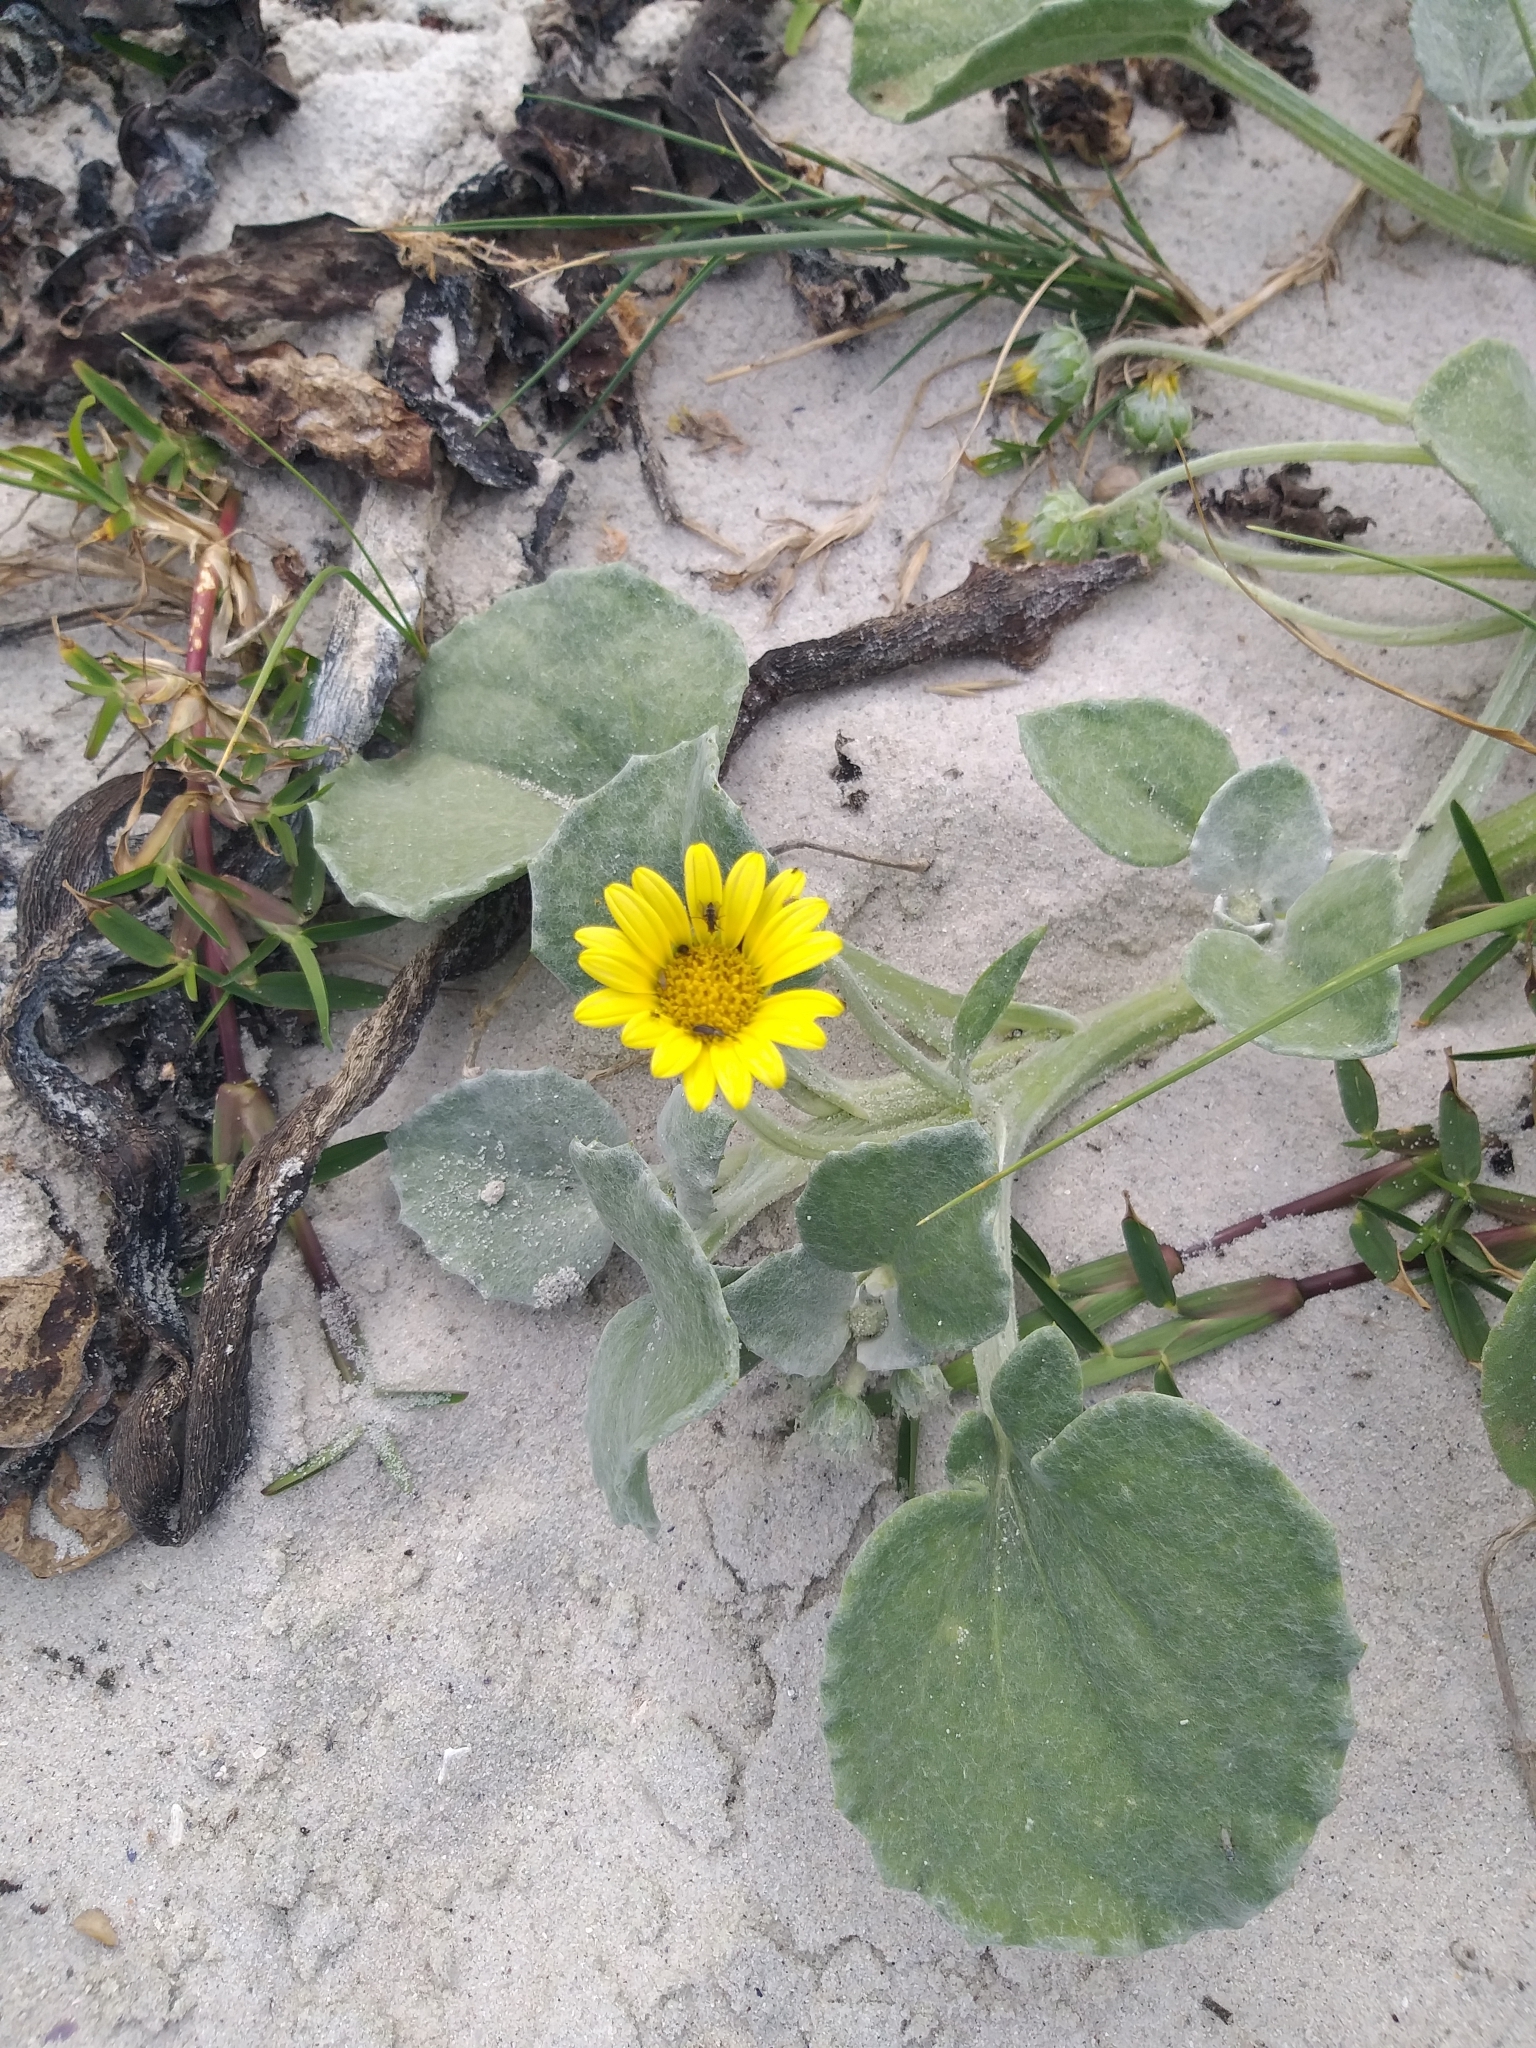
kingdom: Plantae
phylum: Tracheophyta
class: Magnoliopsida
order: Asterales
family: Asteraceae
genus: Arctotheca
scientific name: Arctotheca populifolia
